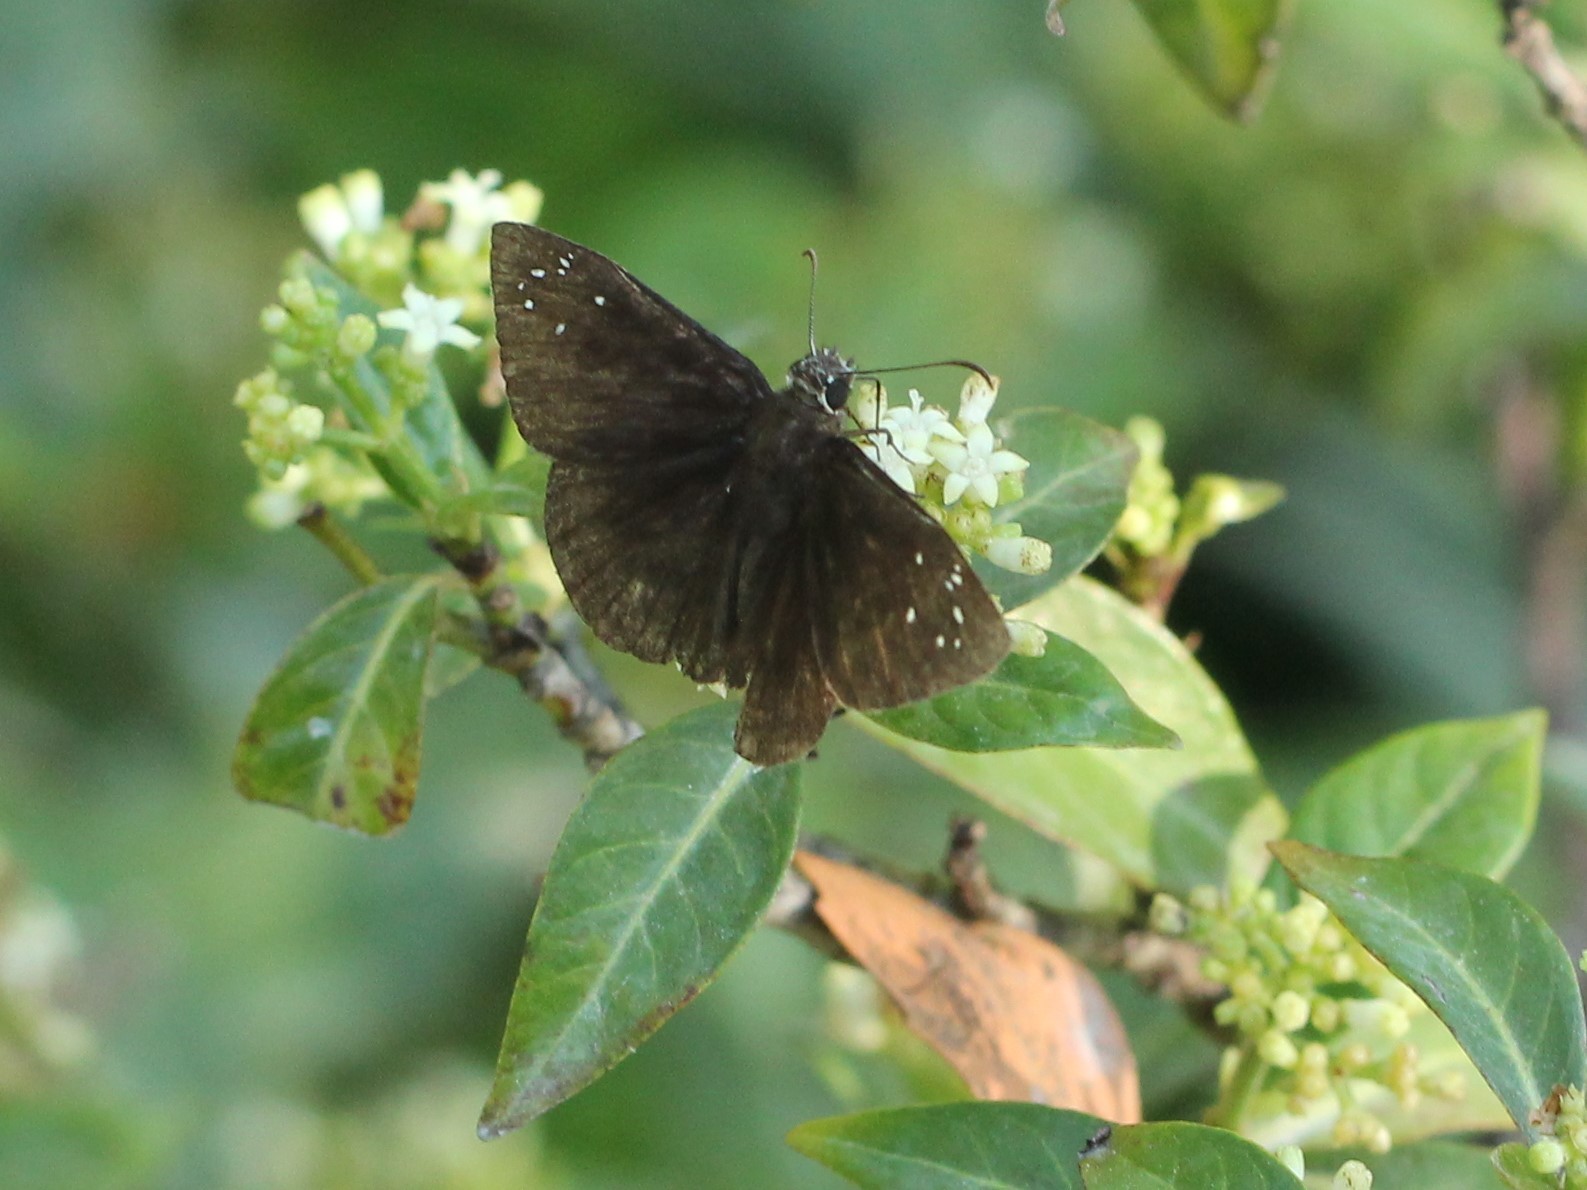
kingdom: Animalia
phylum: Arthropoda
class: Insecta
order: Lepidoptera
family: Hesperiidae
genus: Ephyriades
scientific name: Ephyriades brunnea
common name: Florida duskywing
